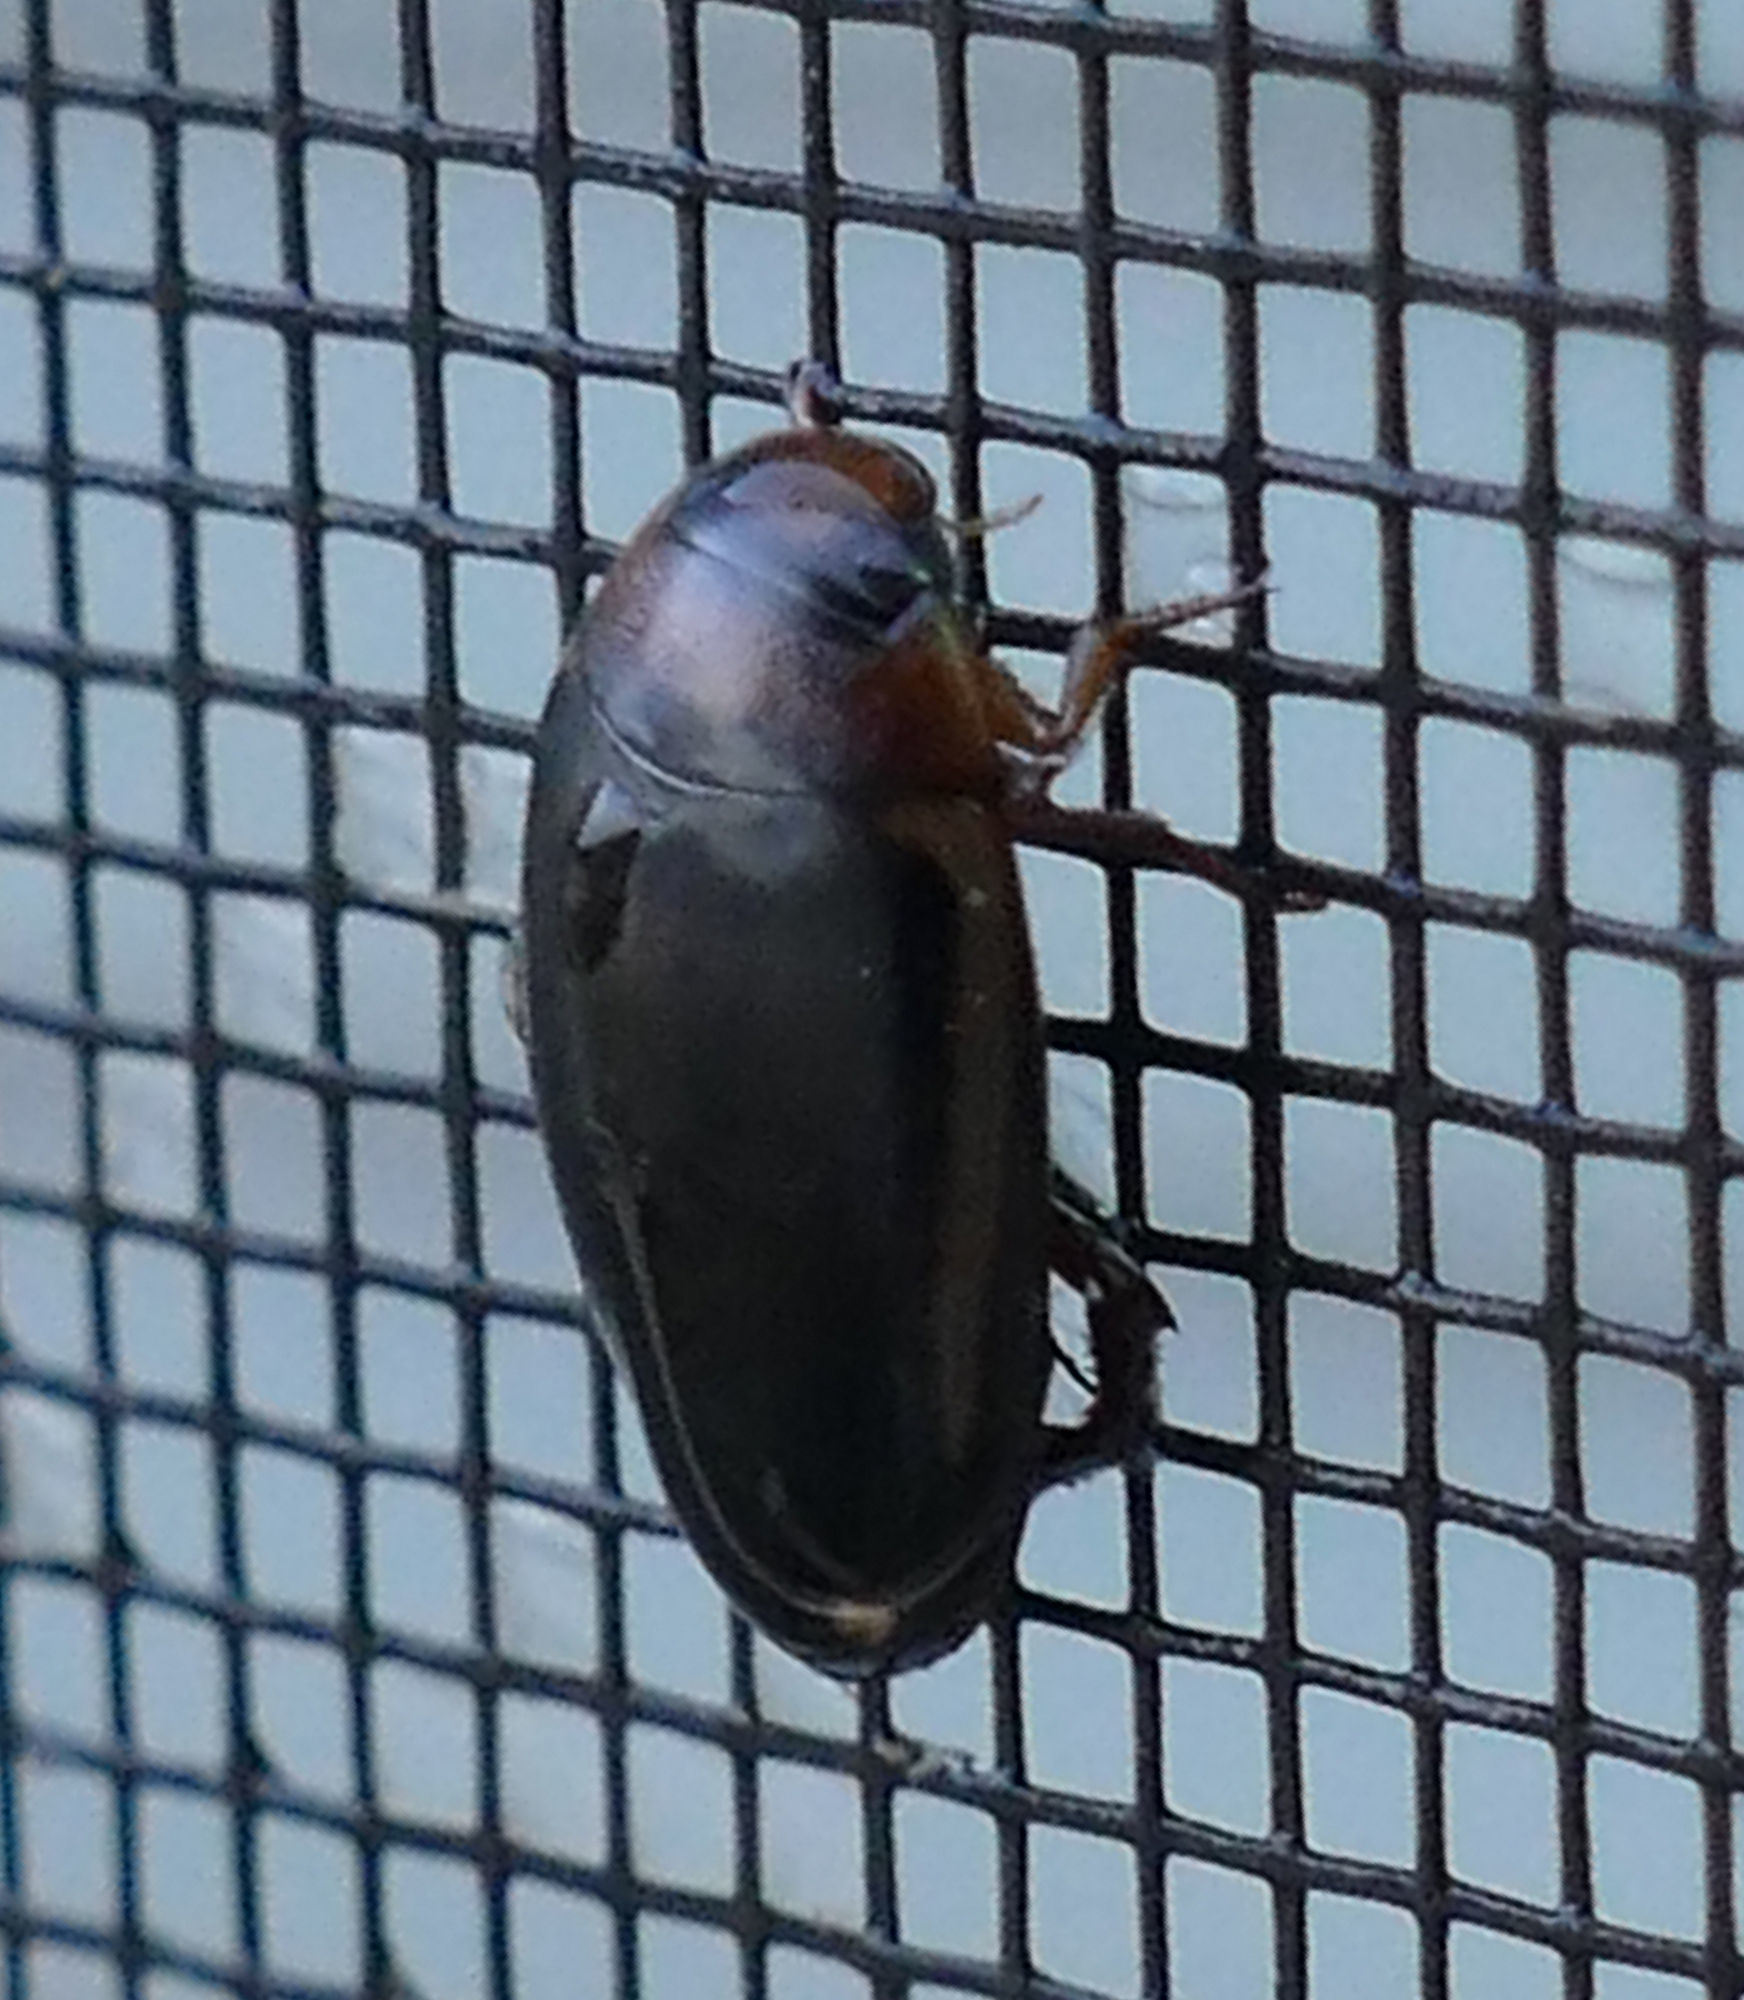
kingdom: Animalia
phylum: Arthropoda
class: Insecta
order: Coleoptera
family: Dytiscidae
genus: Hydaticus
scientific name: Hydaticus bimarginatus
